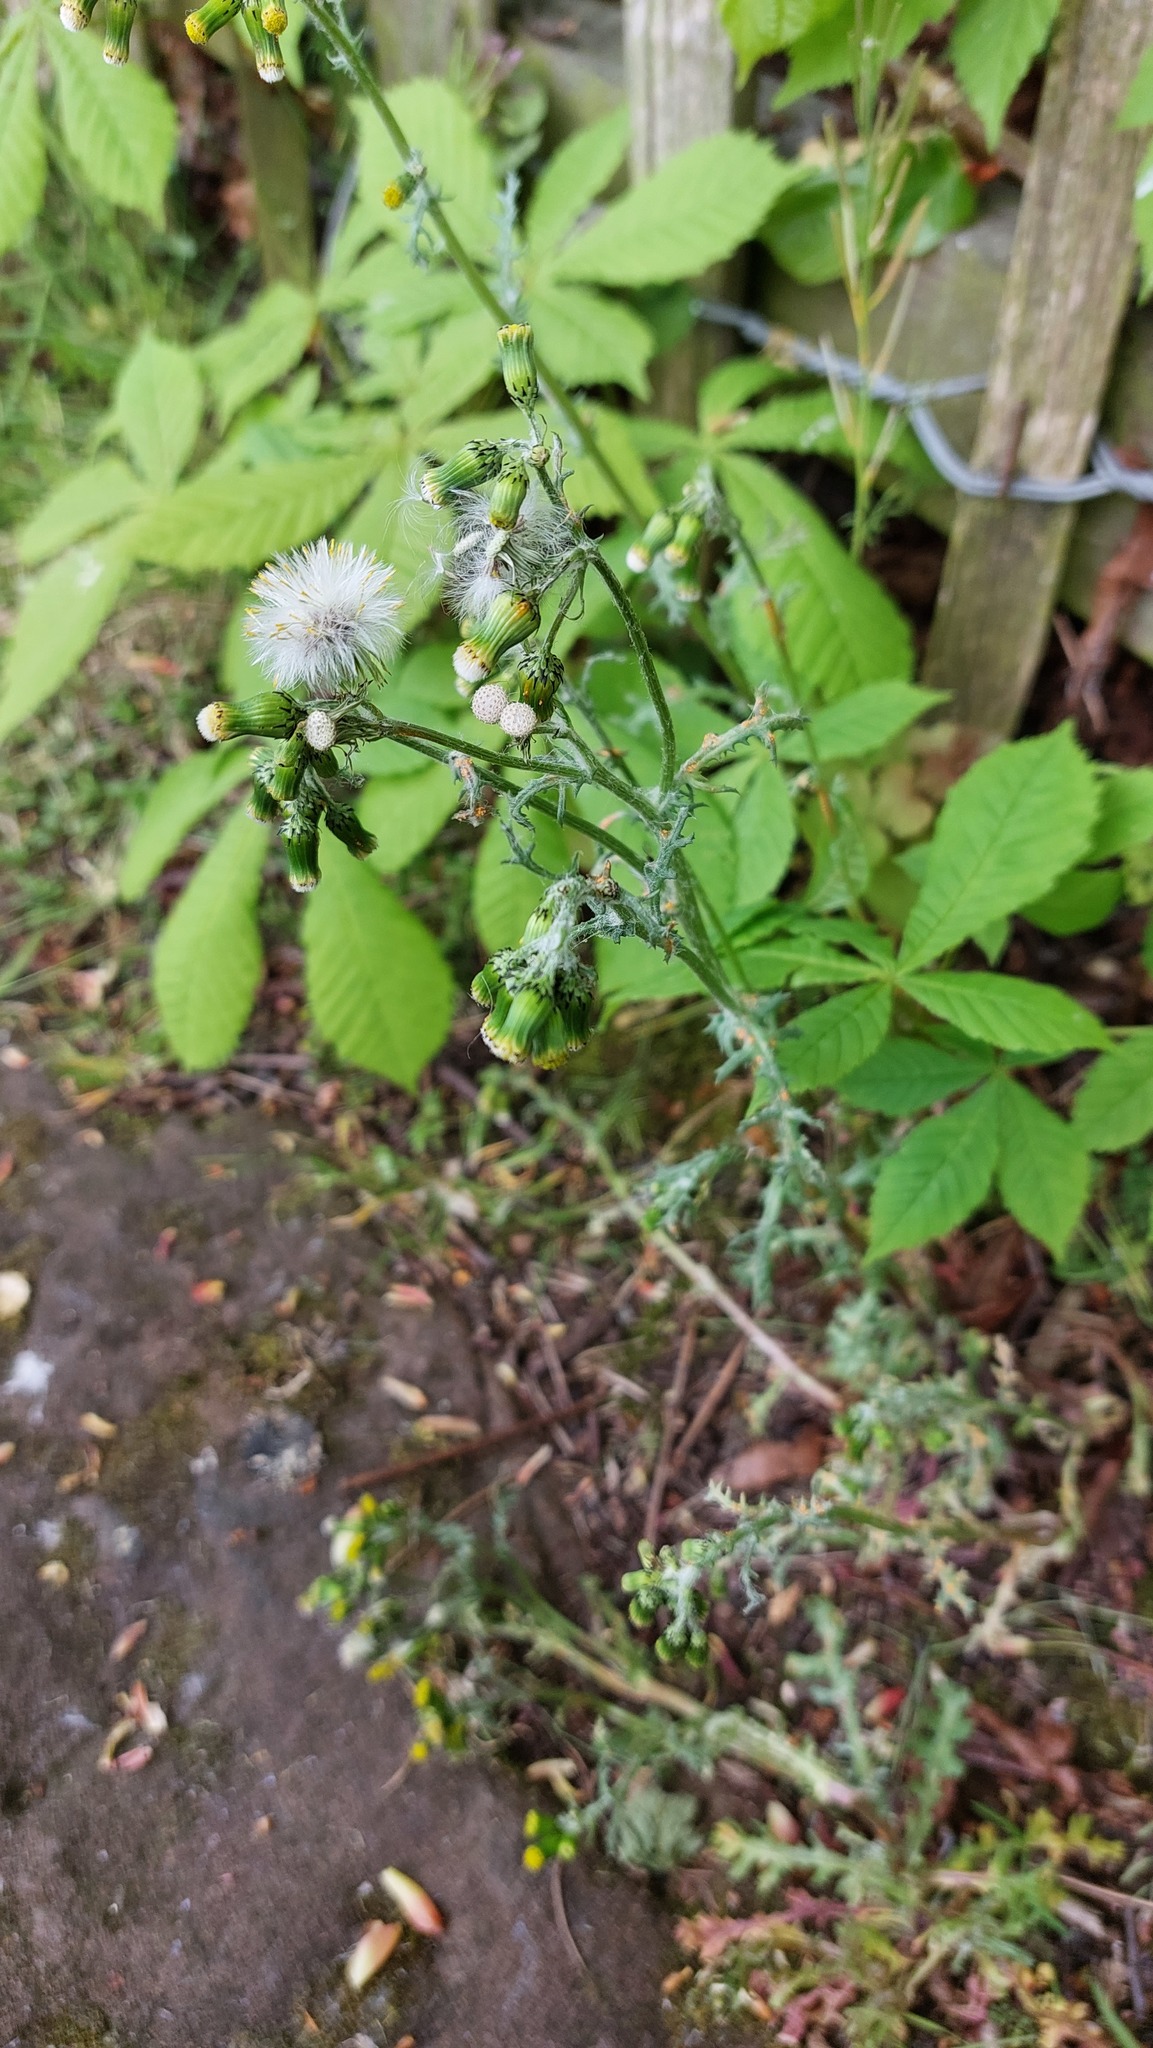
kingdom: Plantae
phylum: Tracheophyta
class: Magnoliopsida
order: Asterales
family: Asteraceae
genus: Senecio
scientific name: Senecio vulgaris
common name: Old-man-in-the-spring
